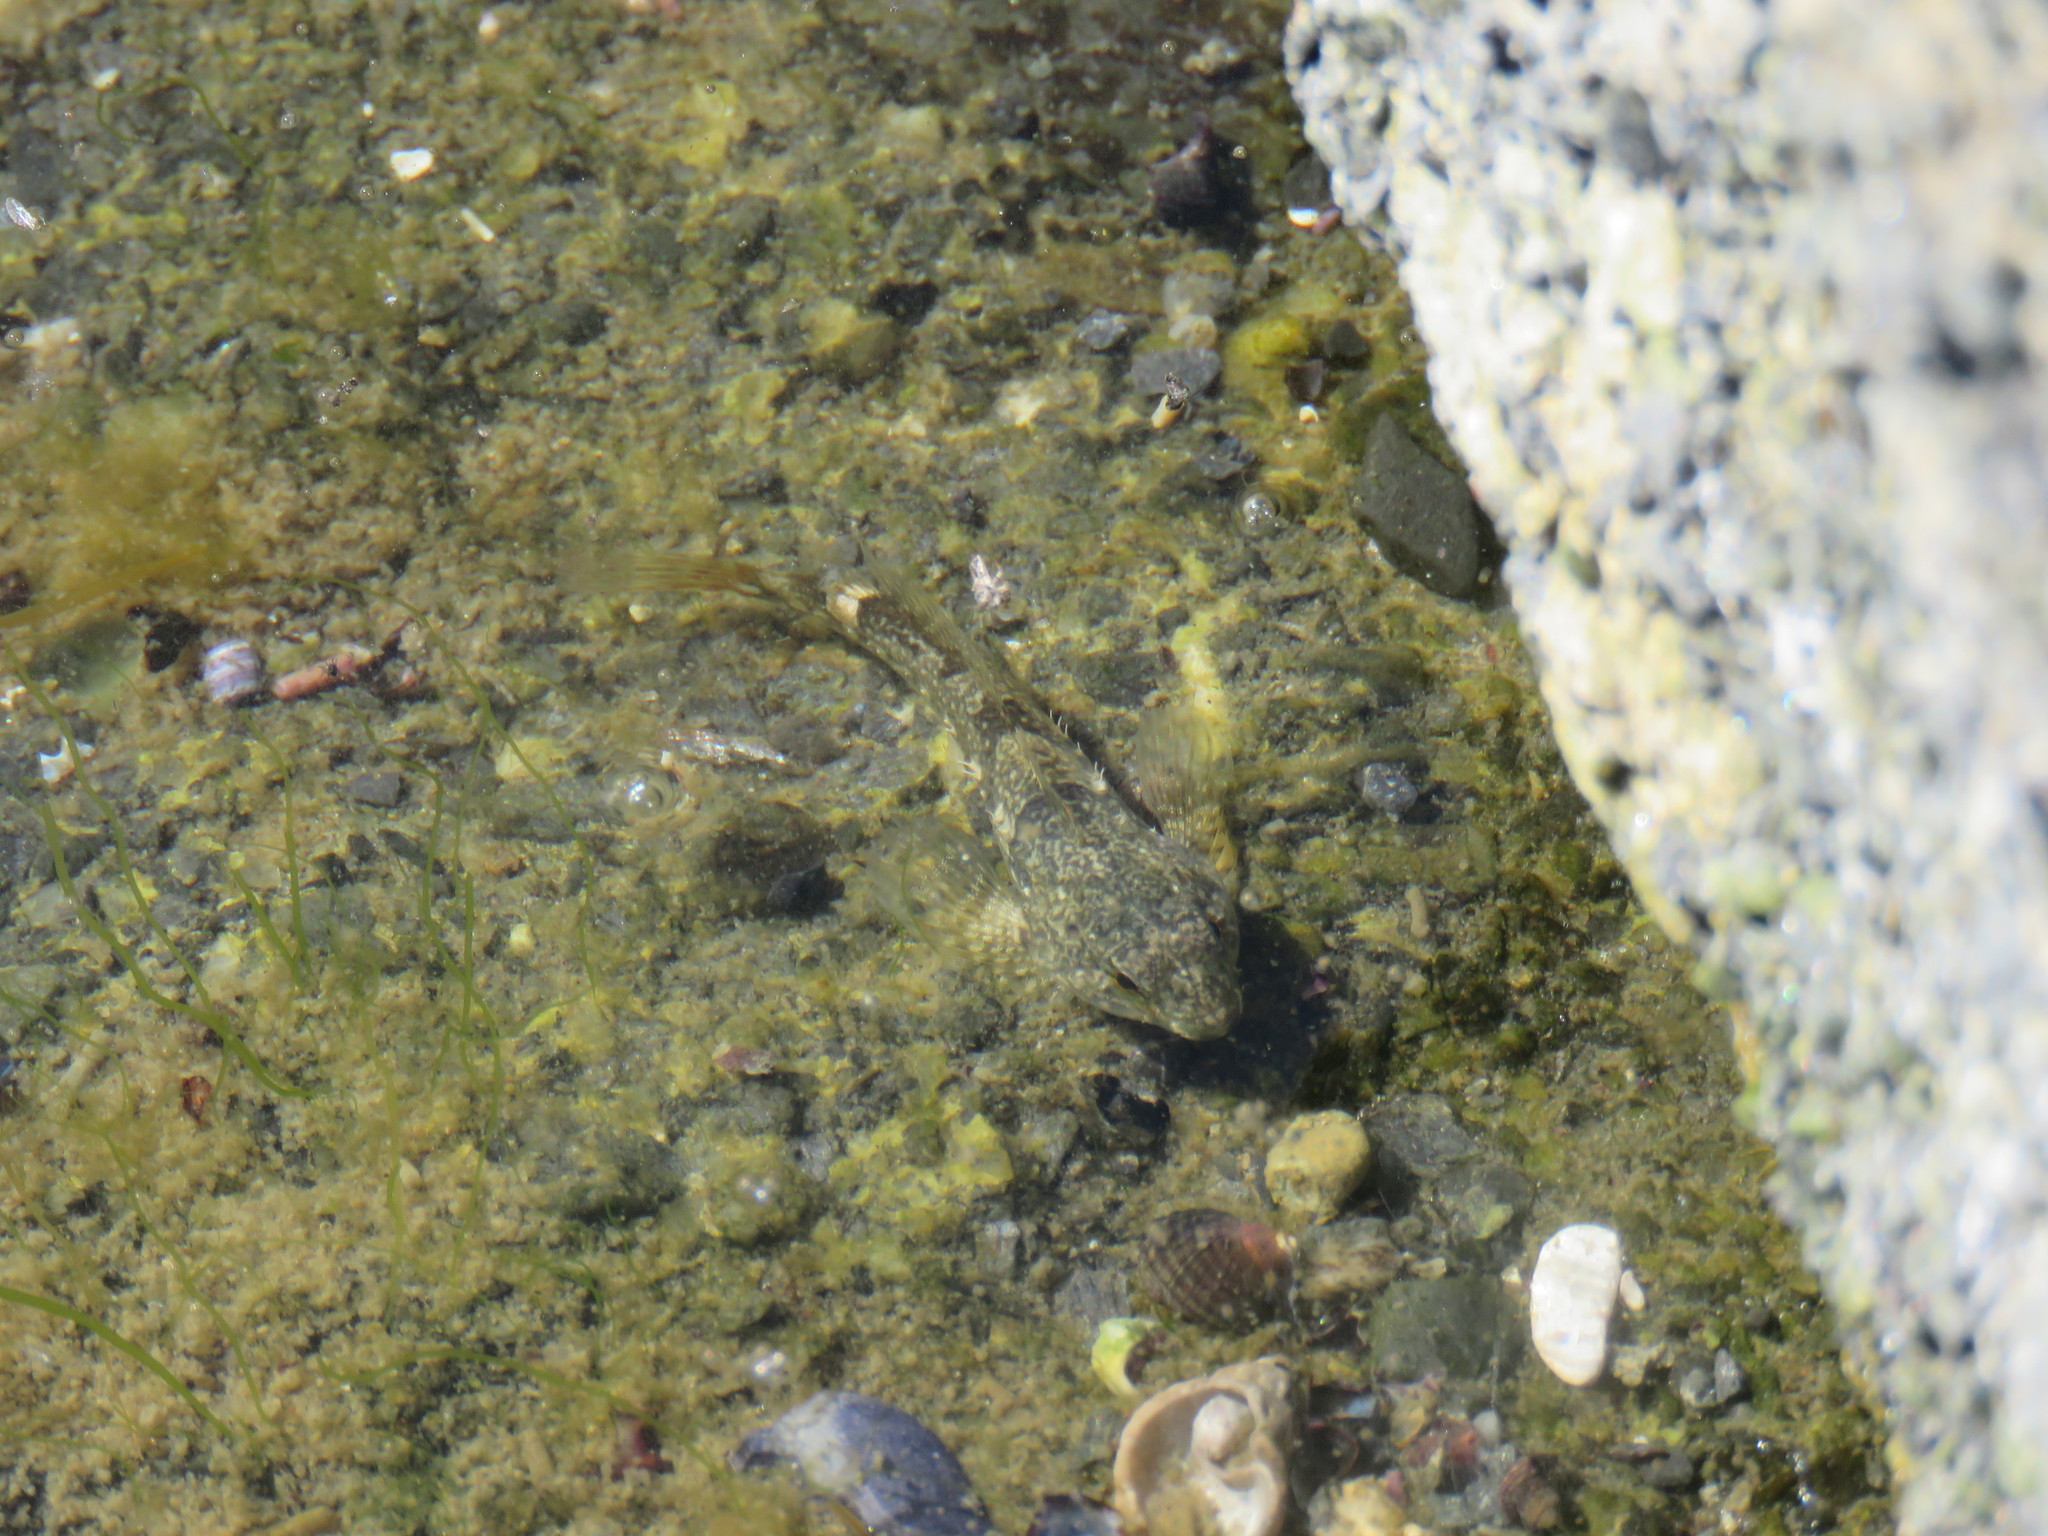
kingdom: Animalia
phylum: Chordata
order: Scorpaeniformes
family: Cottidae
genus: Oligocottus
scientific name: Oligocottus maculosus
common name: Tidepool sculpin
